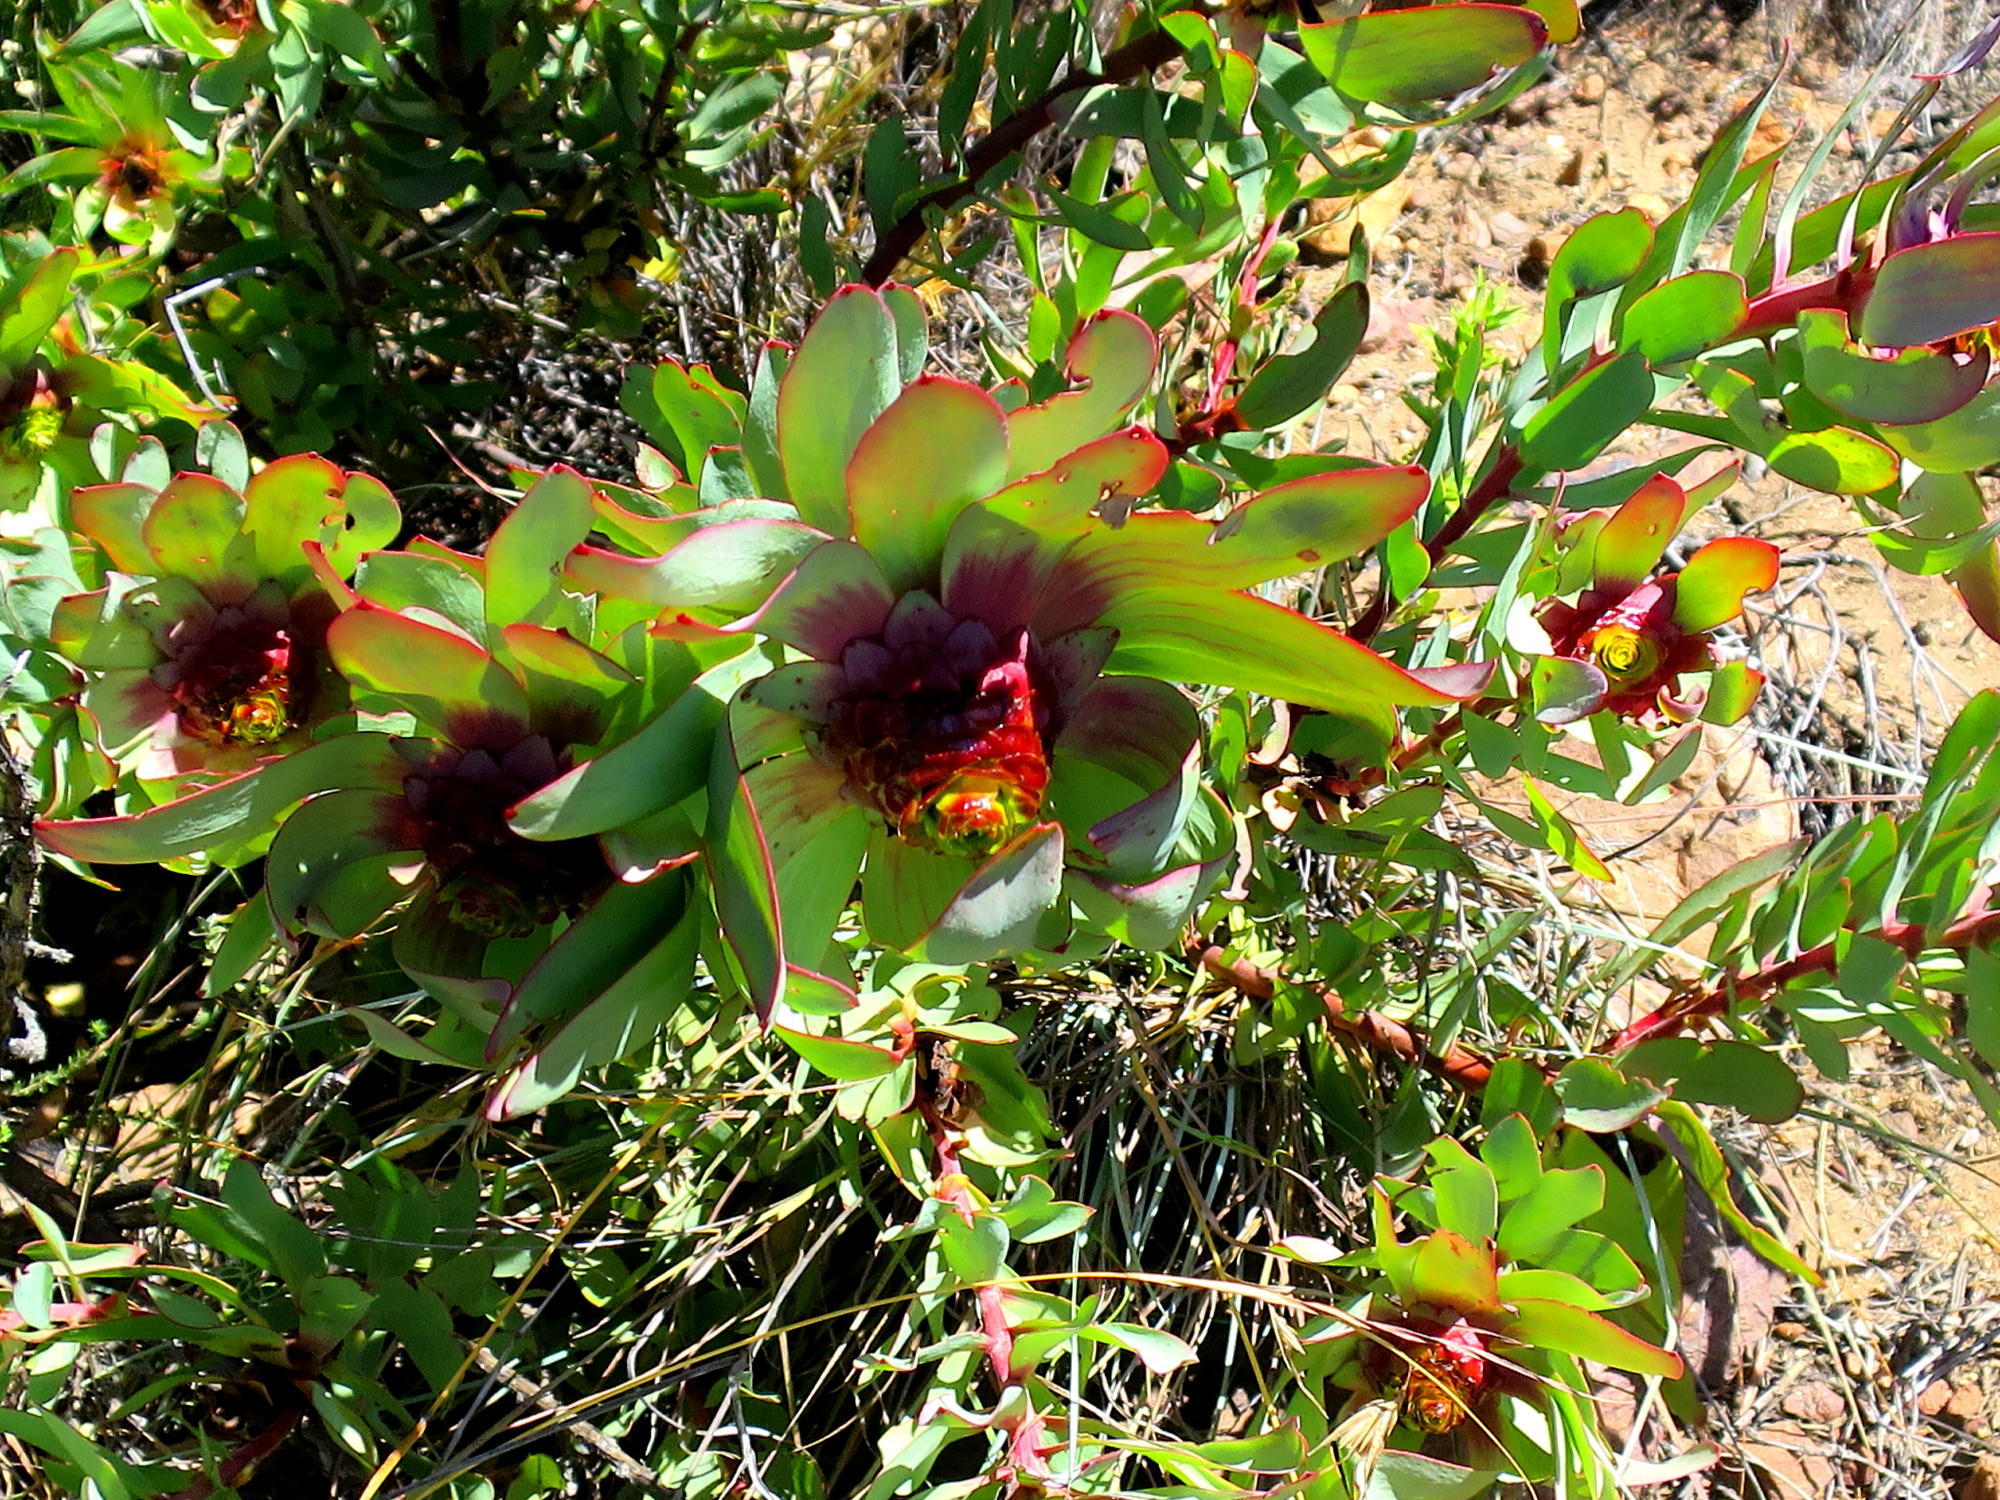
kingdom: Plantae
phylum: Tracheophyta
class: Magnoliopsida
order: Proteales
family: Proteaceae
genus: Leucadendron
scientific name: Leucadendron cordatum
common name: Droopy conebush
